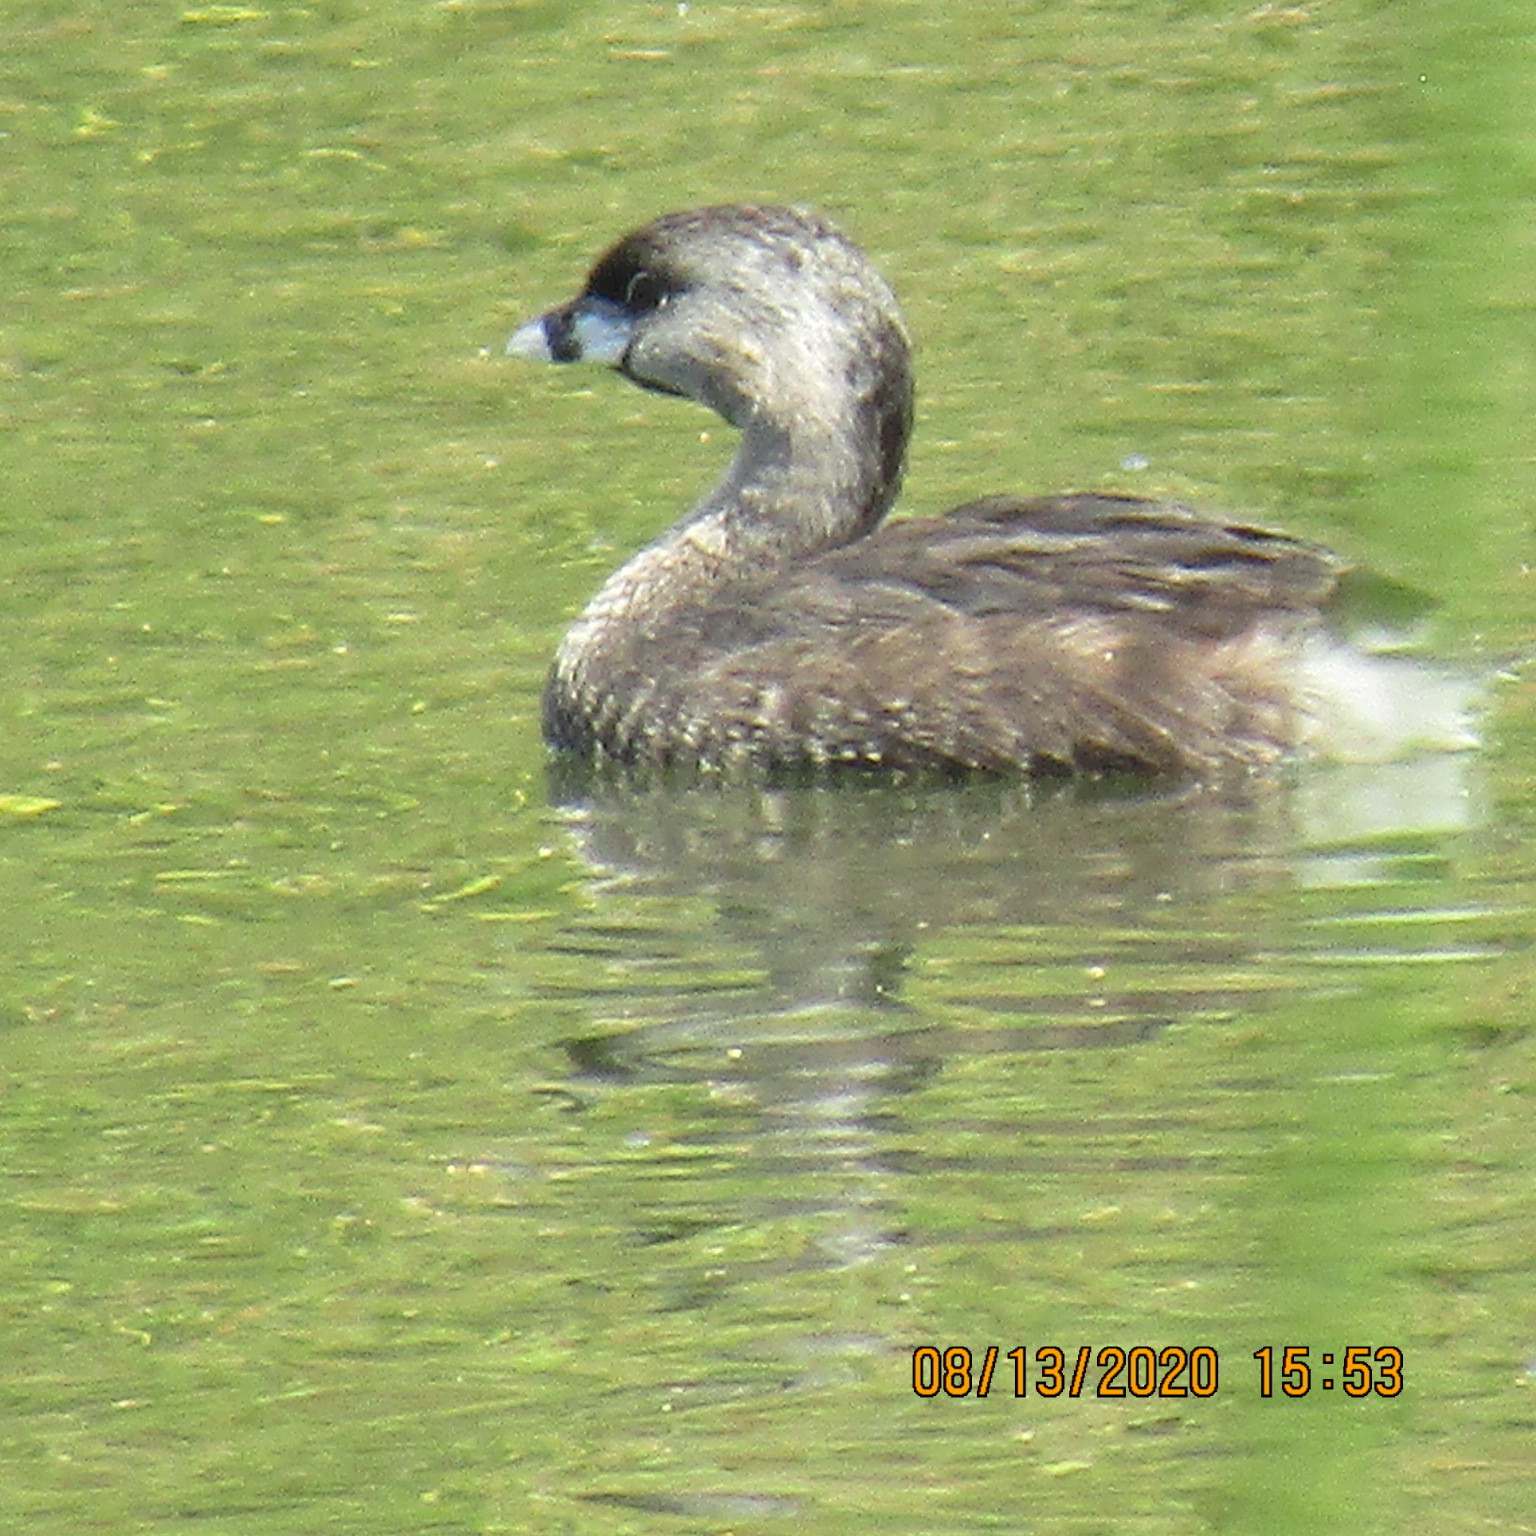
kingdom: Animalia
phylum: Chordata
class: Aves
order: Podicipediformes
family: Podicipedidae
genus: Podilymbus
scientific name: Podilymbus podiceps
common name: Pied-billed grebe
